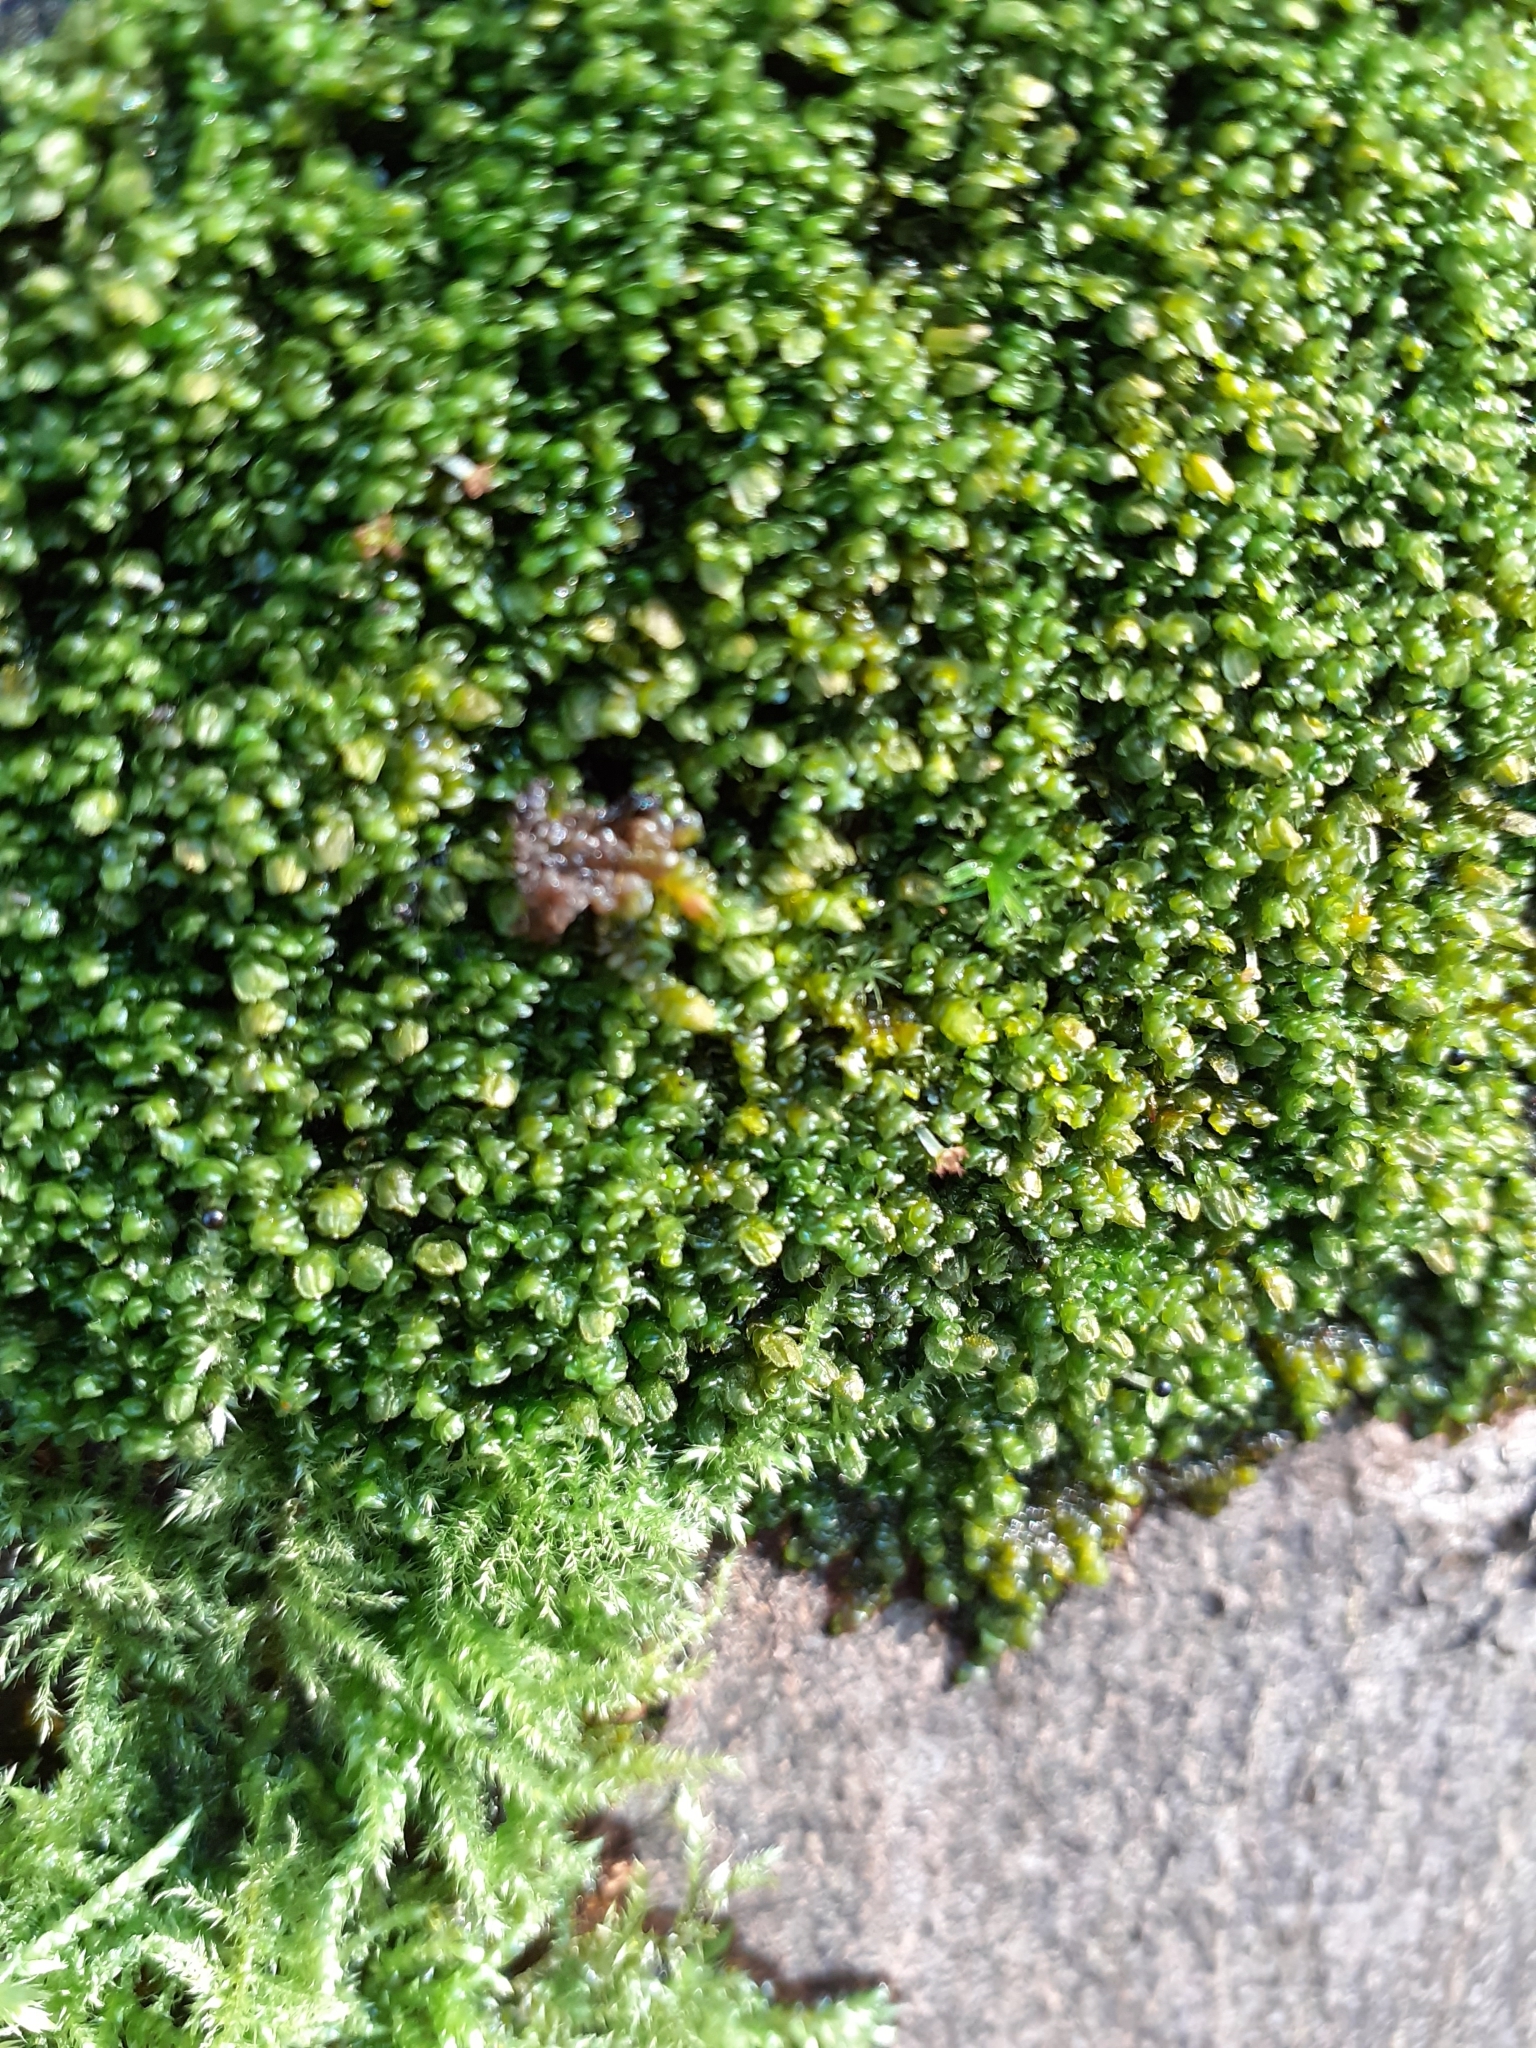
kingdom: Plantae
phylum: Marchantiophyta
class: Jungermanniopsida
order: Porellales
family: Frullaniaceae
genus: Frullania
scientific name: Frullania dilatata
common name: Dilated scalewort
